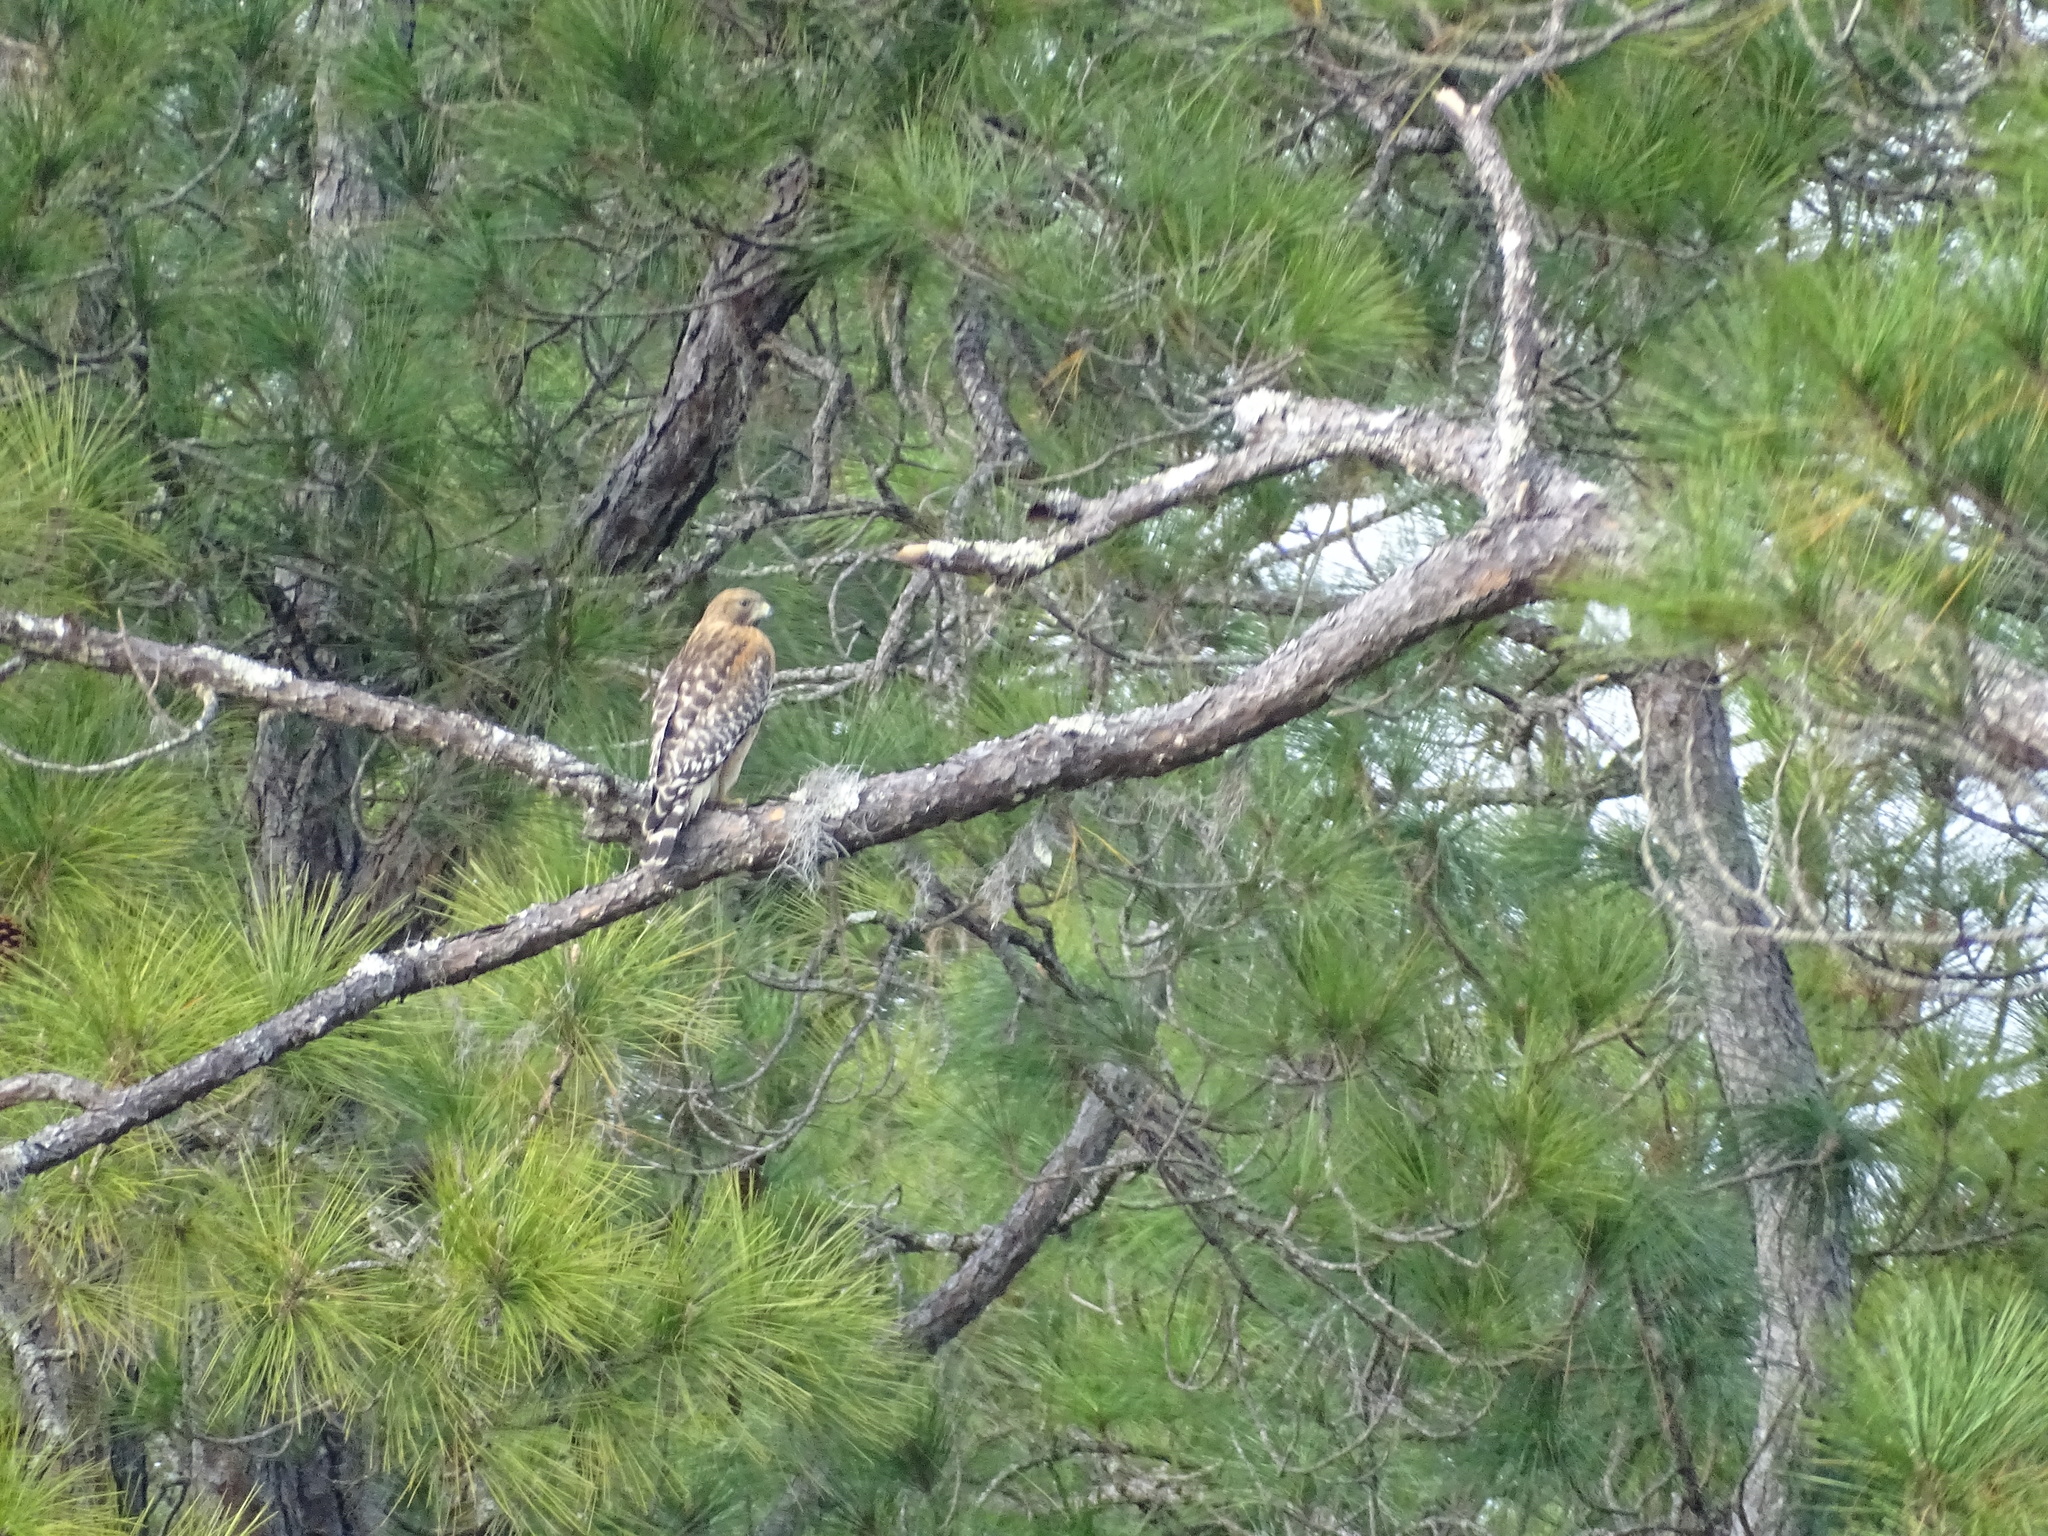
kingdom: Animalia
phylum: Chordata
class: Aves
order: Accipitriformes
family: Accipitridae
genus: Buteo
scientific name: Buteo lineatus
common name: Red-shouldered hawk
